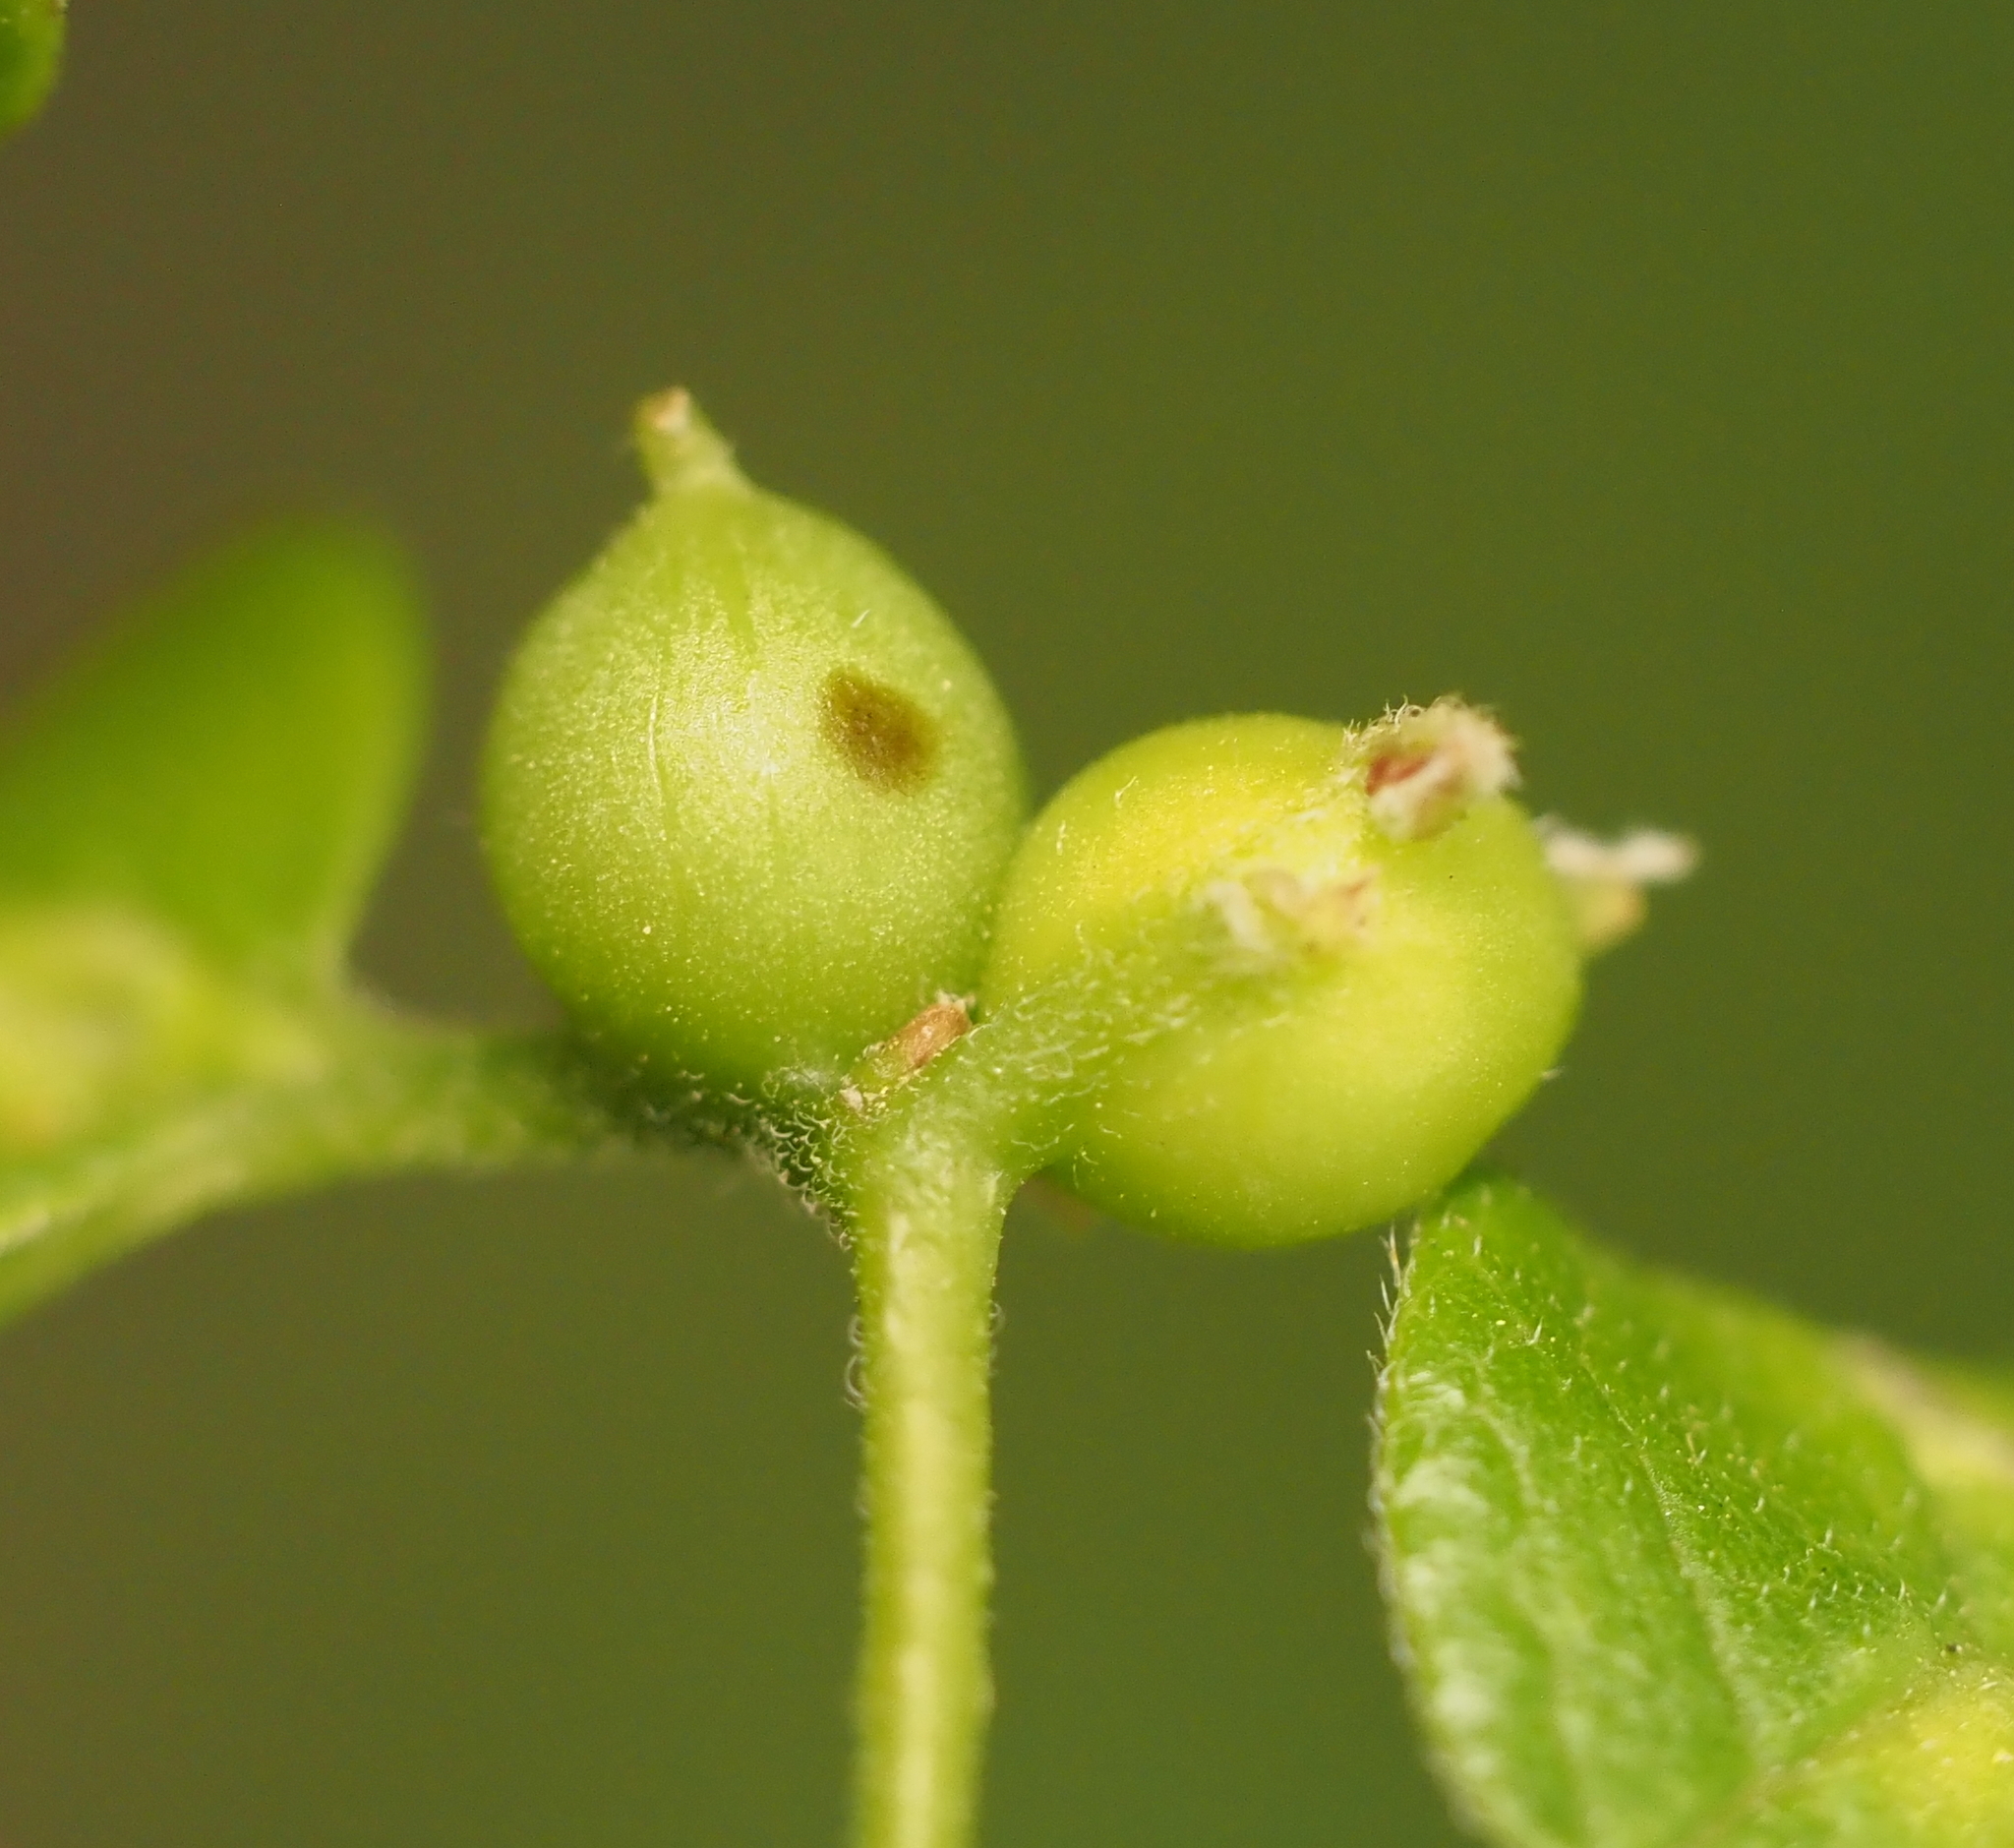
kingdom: Animalia
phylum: Arthropoda
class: Insecta
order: Diptera
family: Cecidomyiidae
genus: Celticecis
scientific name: Celticecis connata
